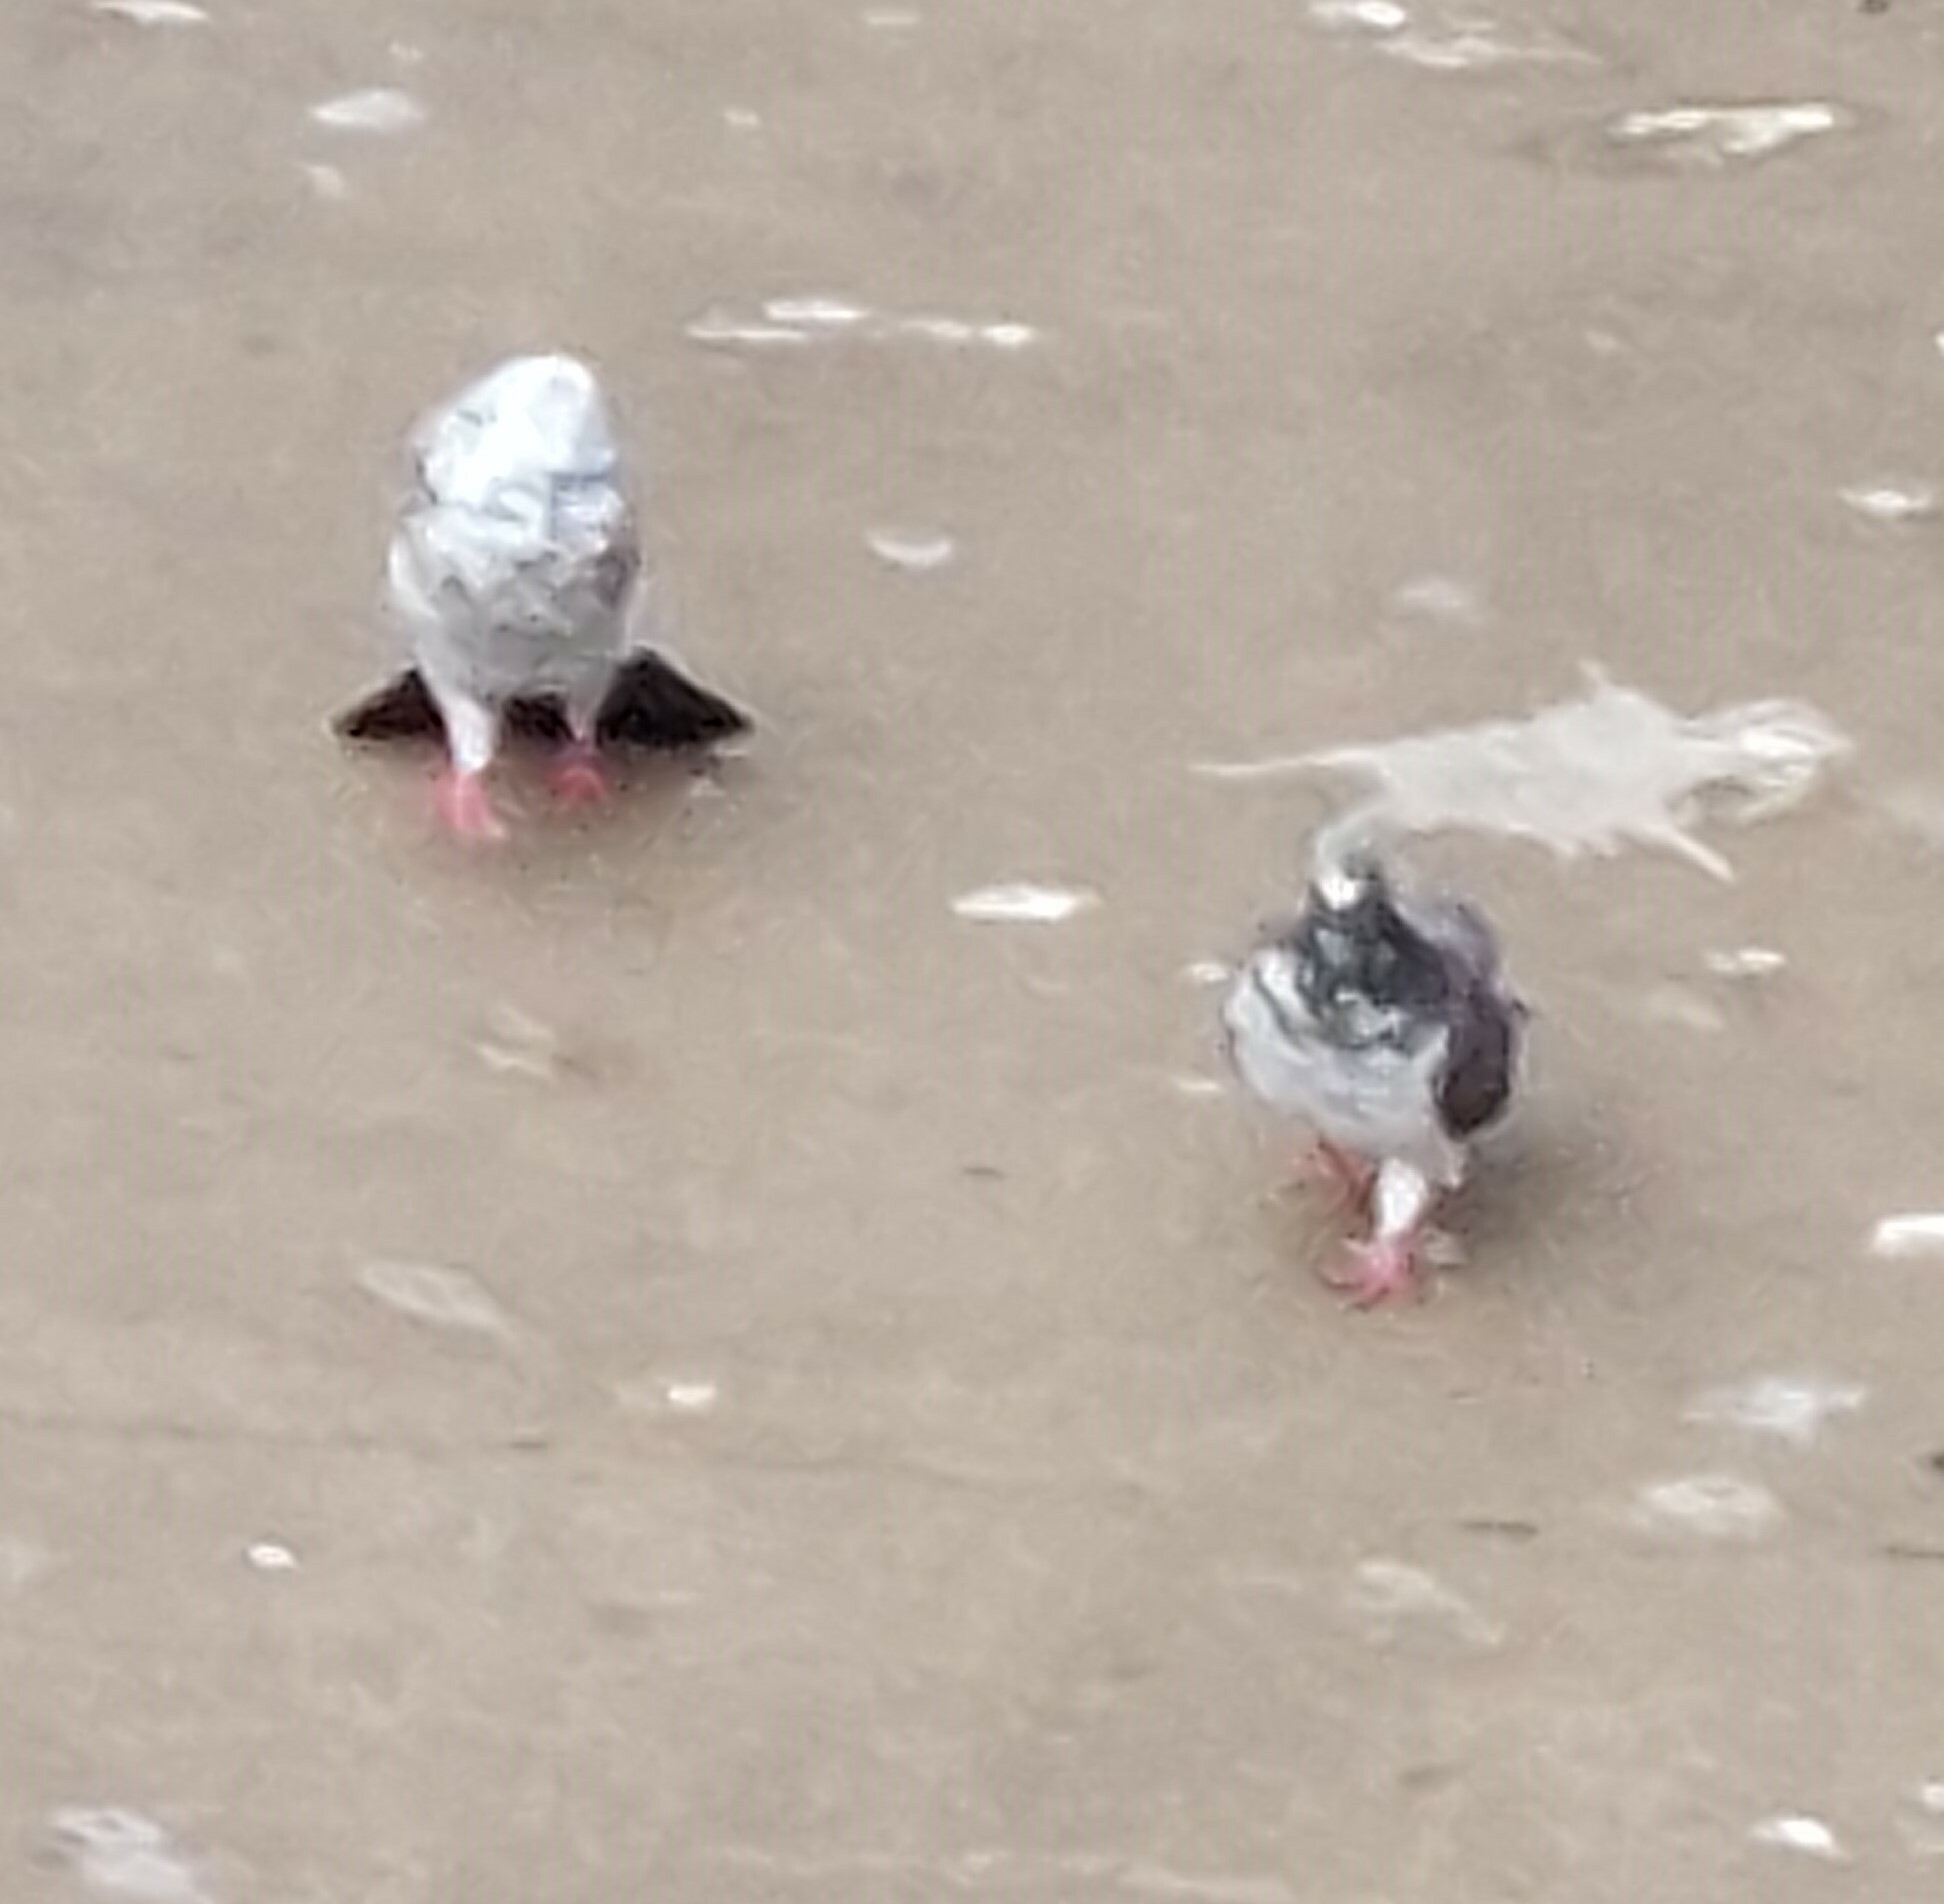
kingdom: Animalia
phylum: Chordata
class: Aves
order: Columbiformes
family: Columbidae
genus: Columba
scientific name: Columba livia
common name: Rock pigeon
